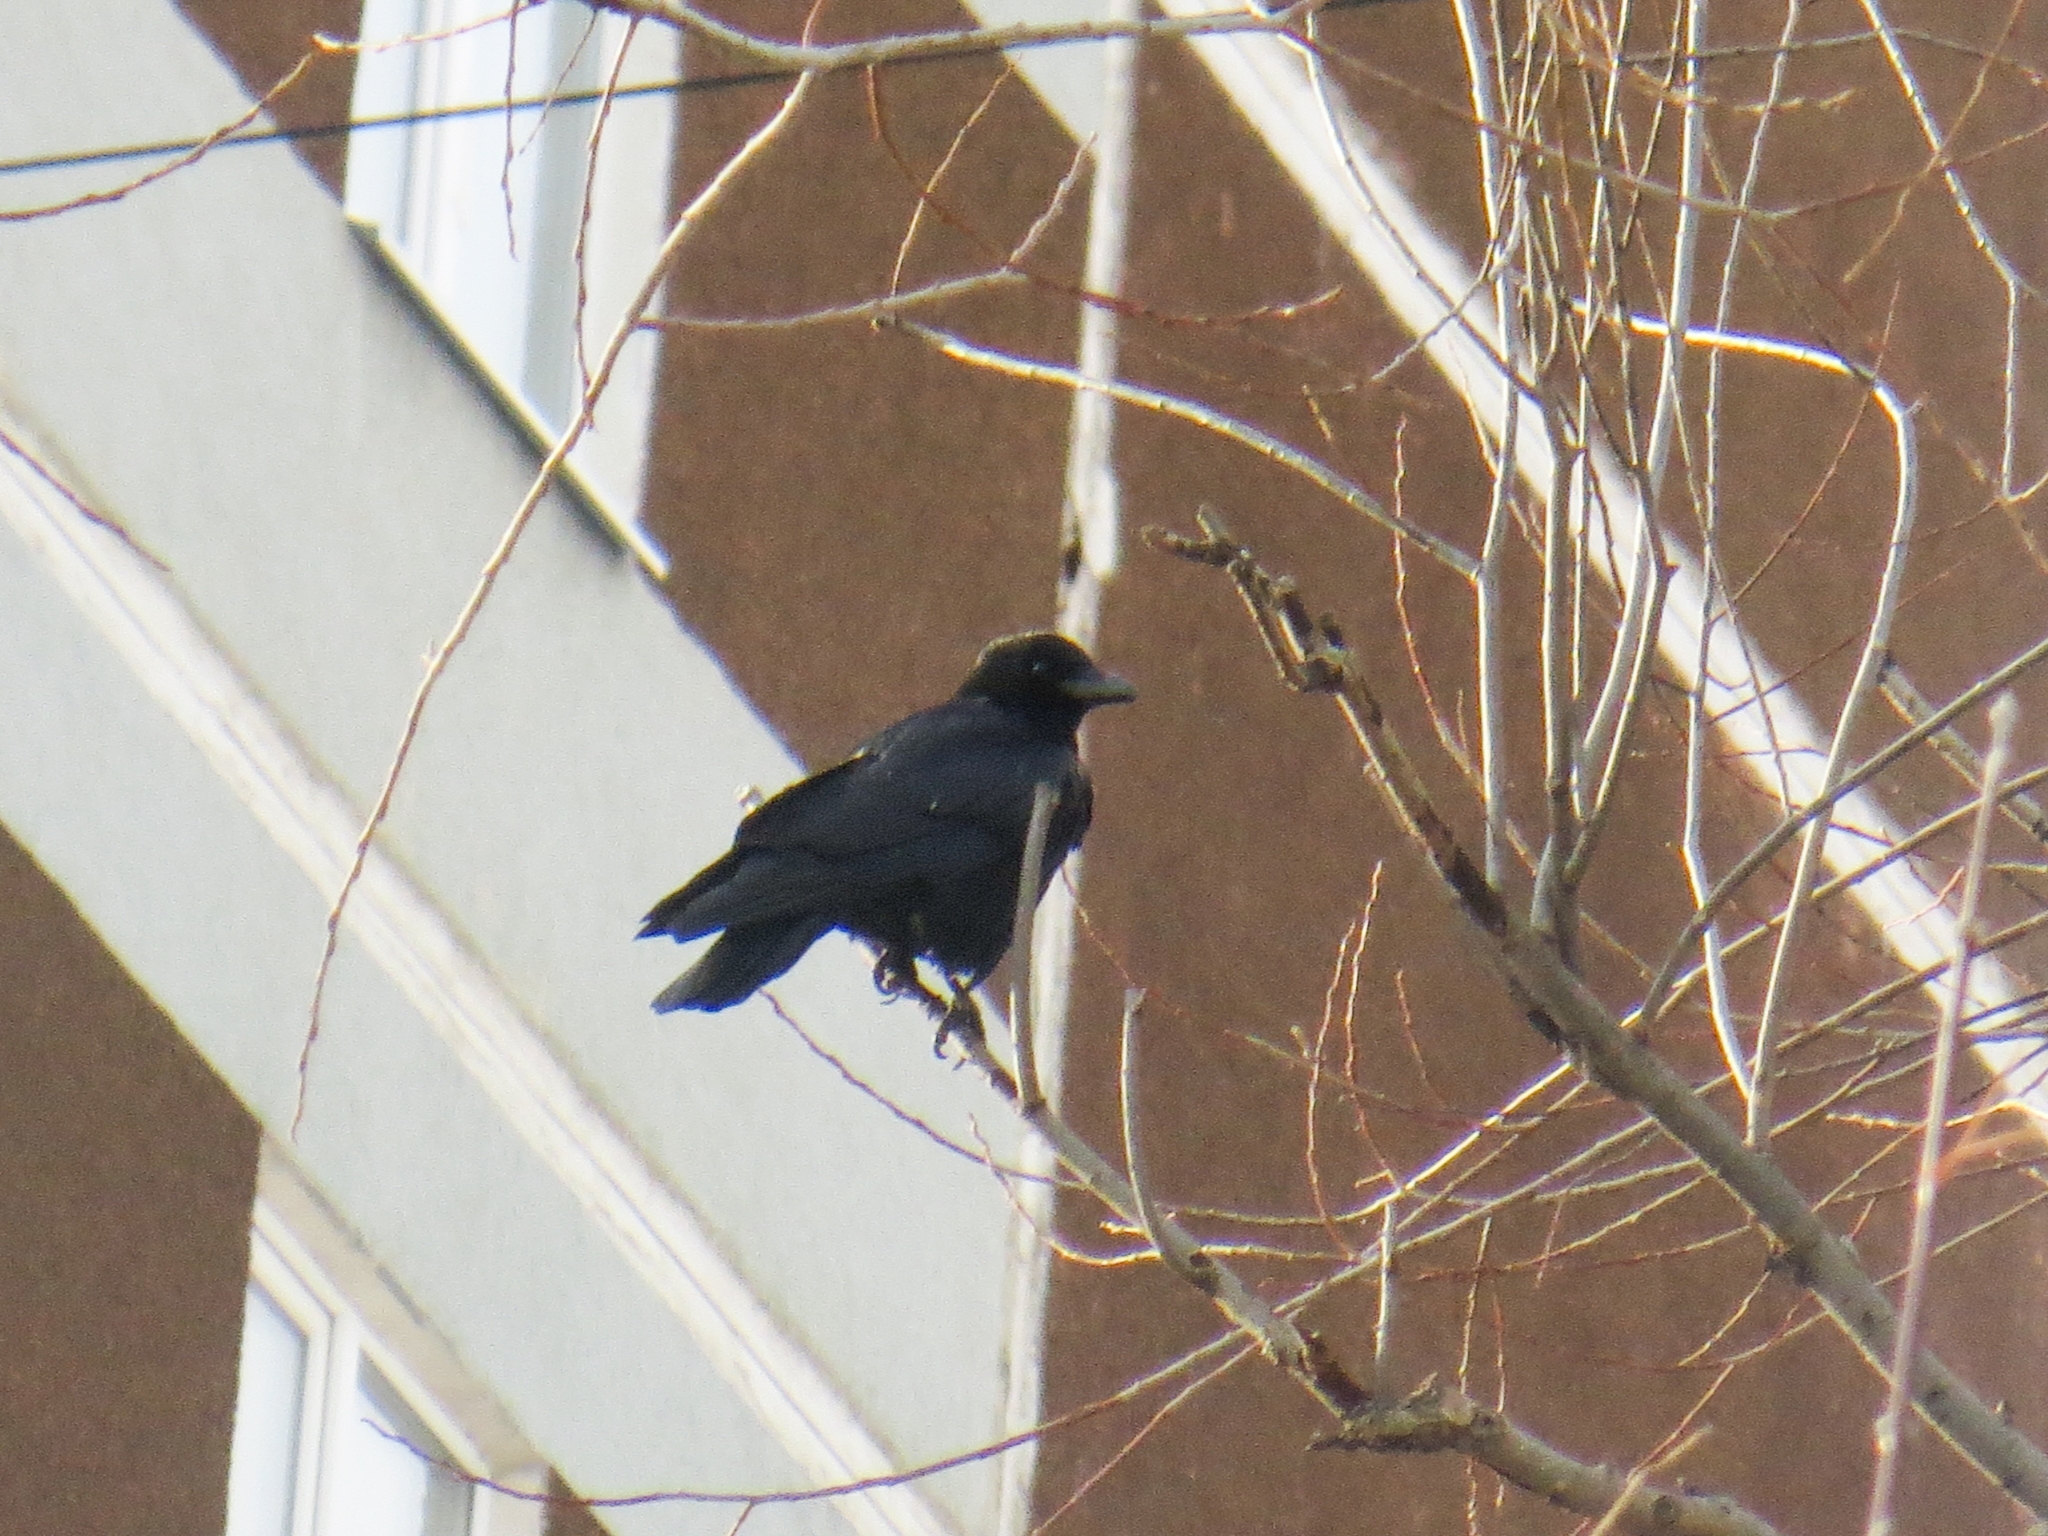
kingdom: Animalia
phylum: Chordata
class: Aves
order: Passeriformes
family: Corvidae
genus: Corvus
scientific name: Corvus corone
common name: Carrion crow
